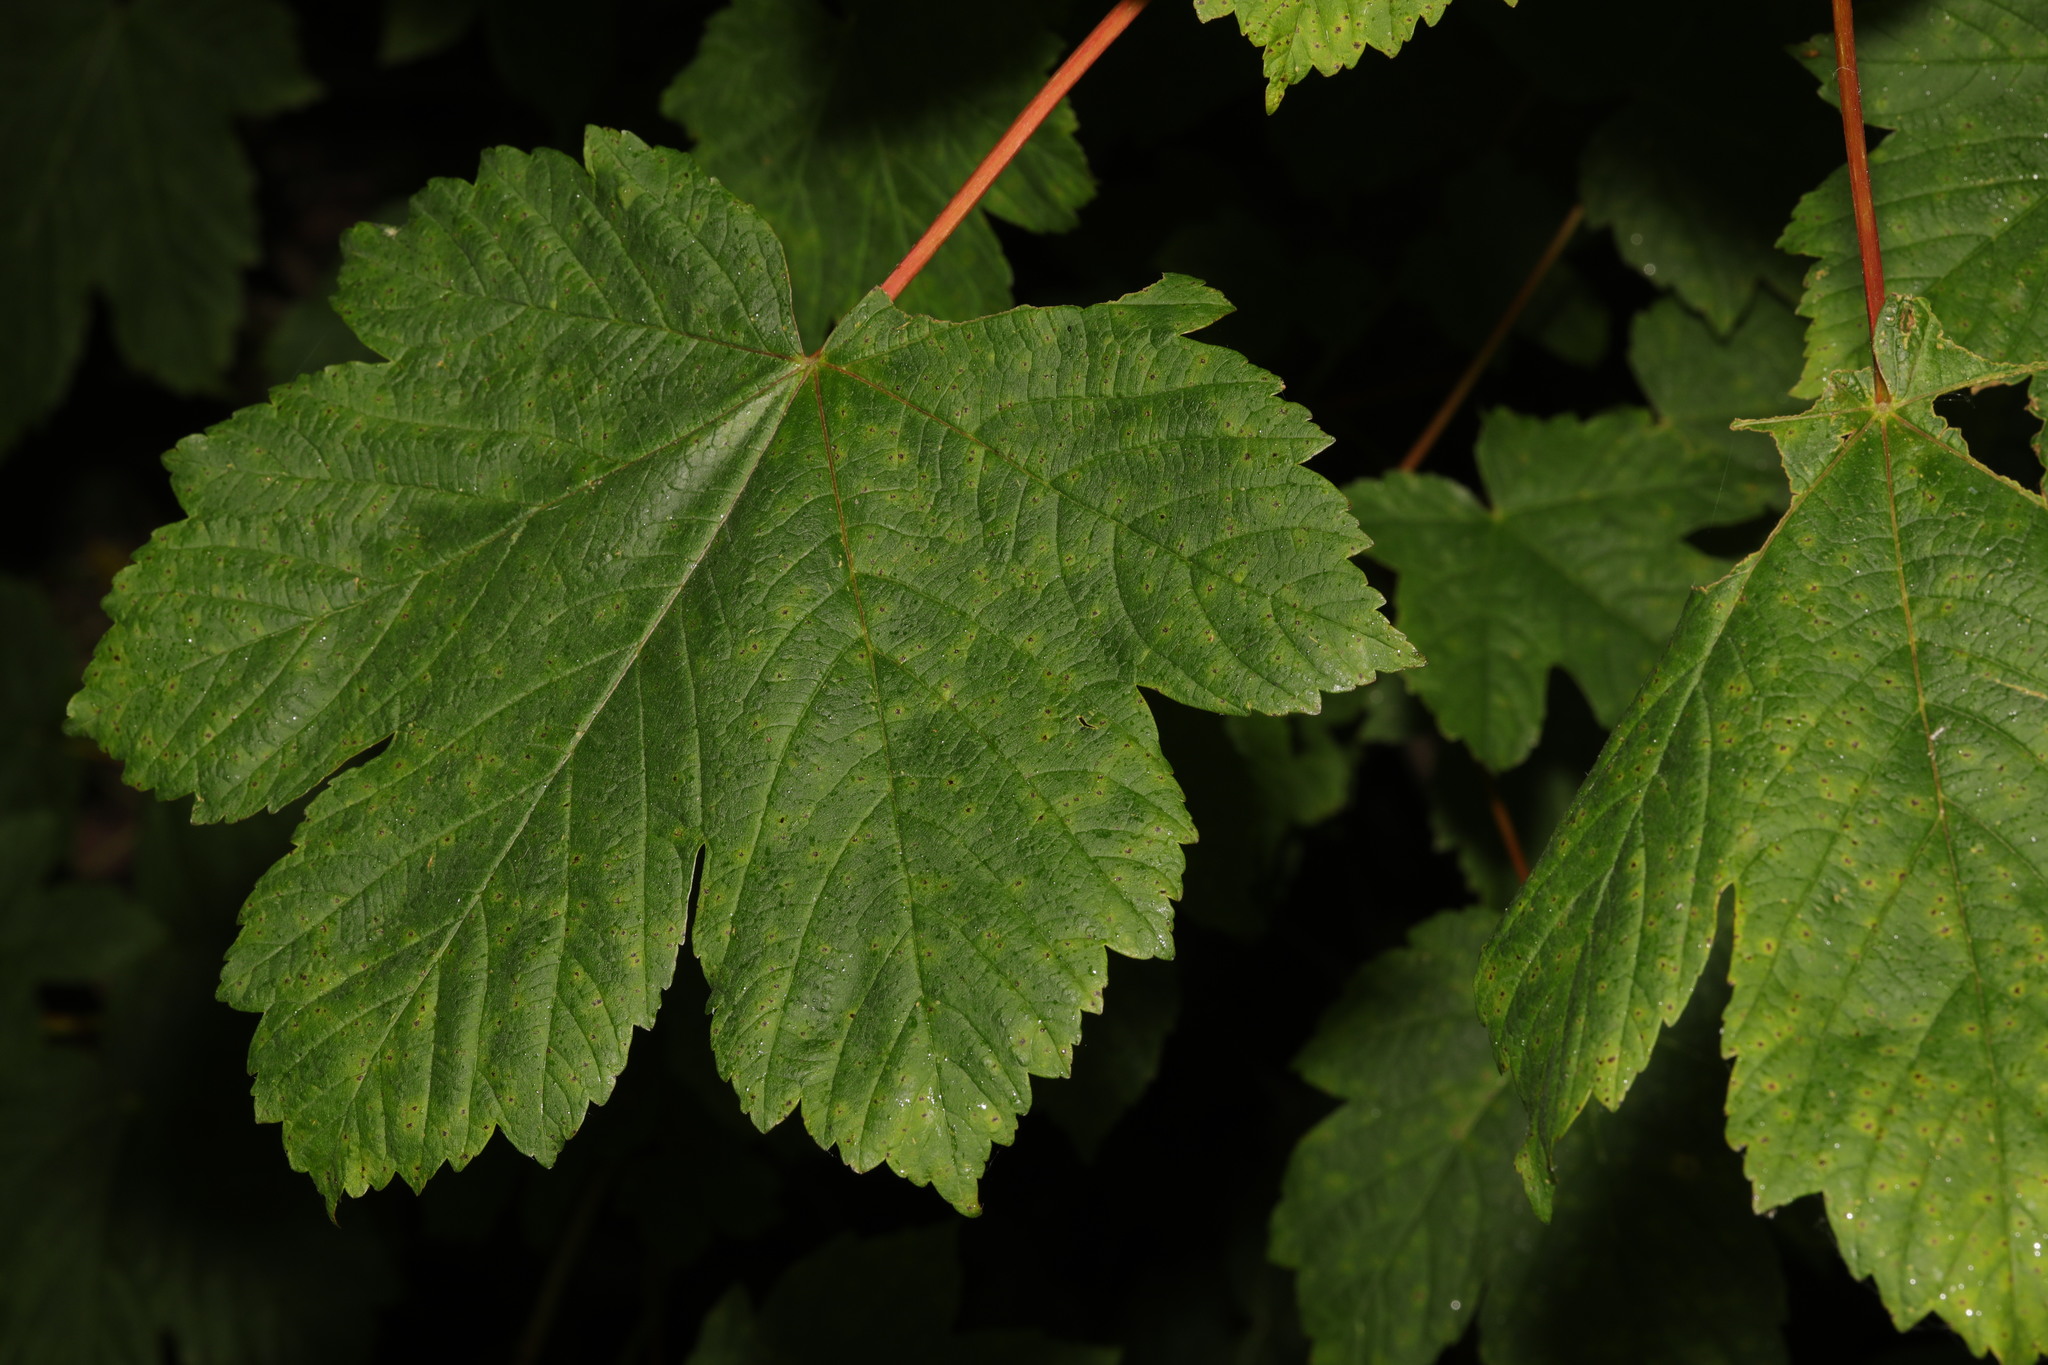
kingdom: Plantae
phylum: Tracheophyta
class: Magnoliopsida
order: Sapindales
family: Sapindaceae
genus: Acer
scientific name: Acer pseudoplatanus
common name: Sycamore
